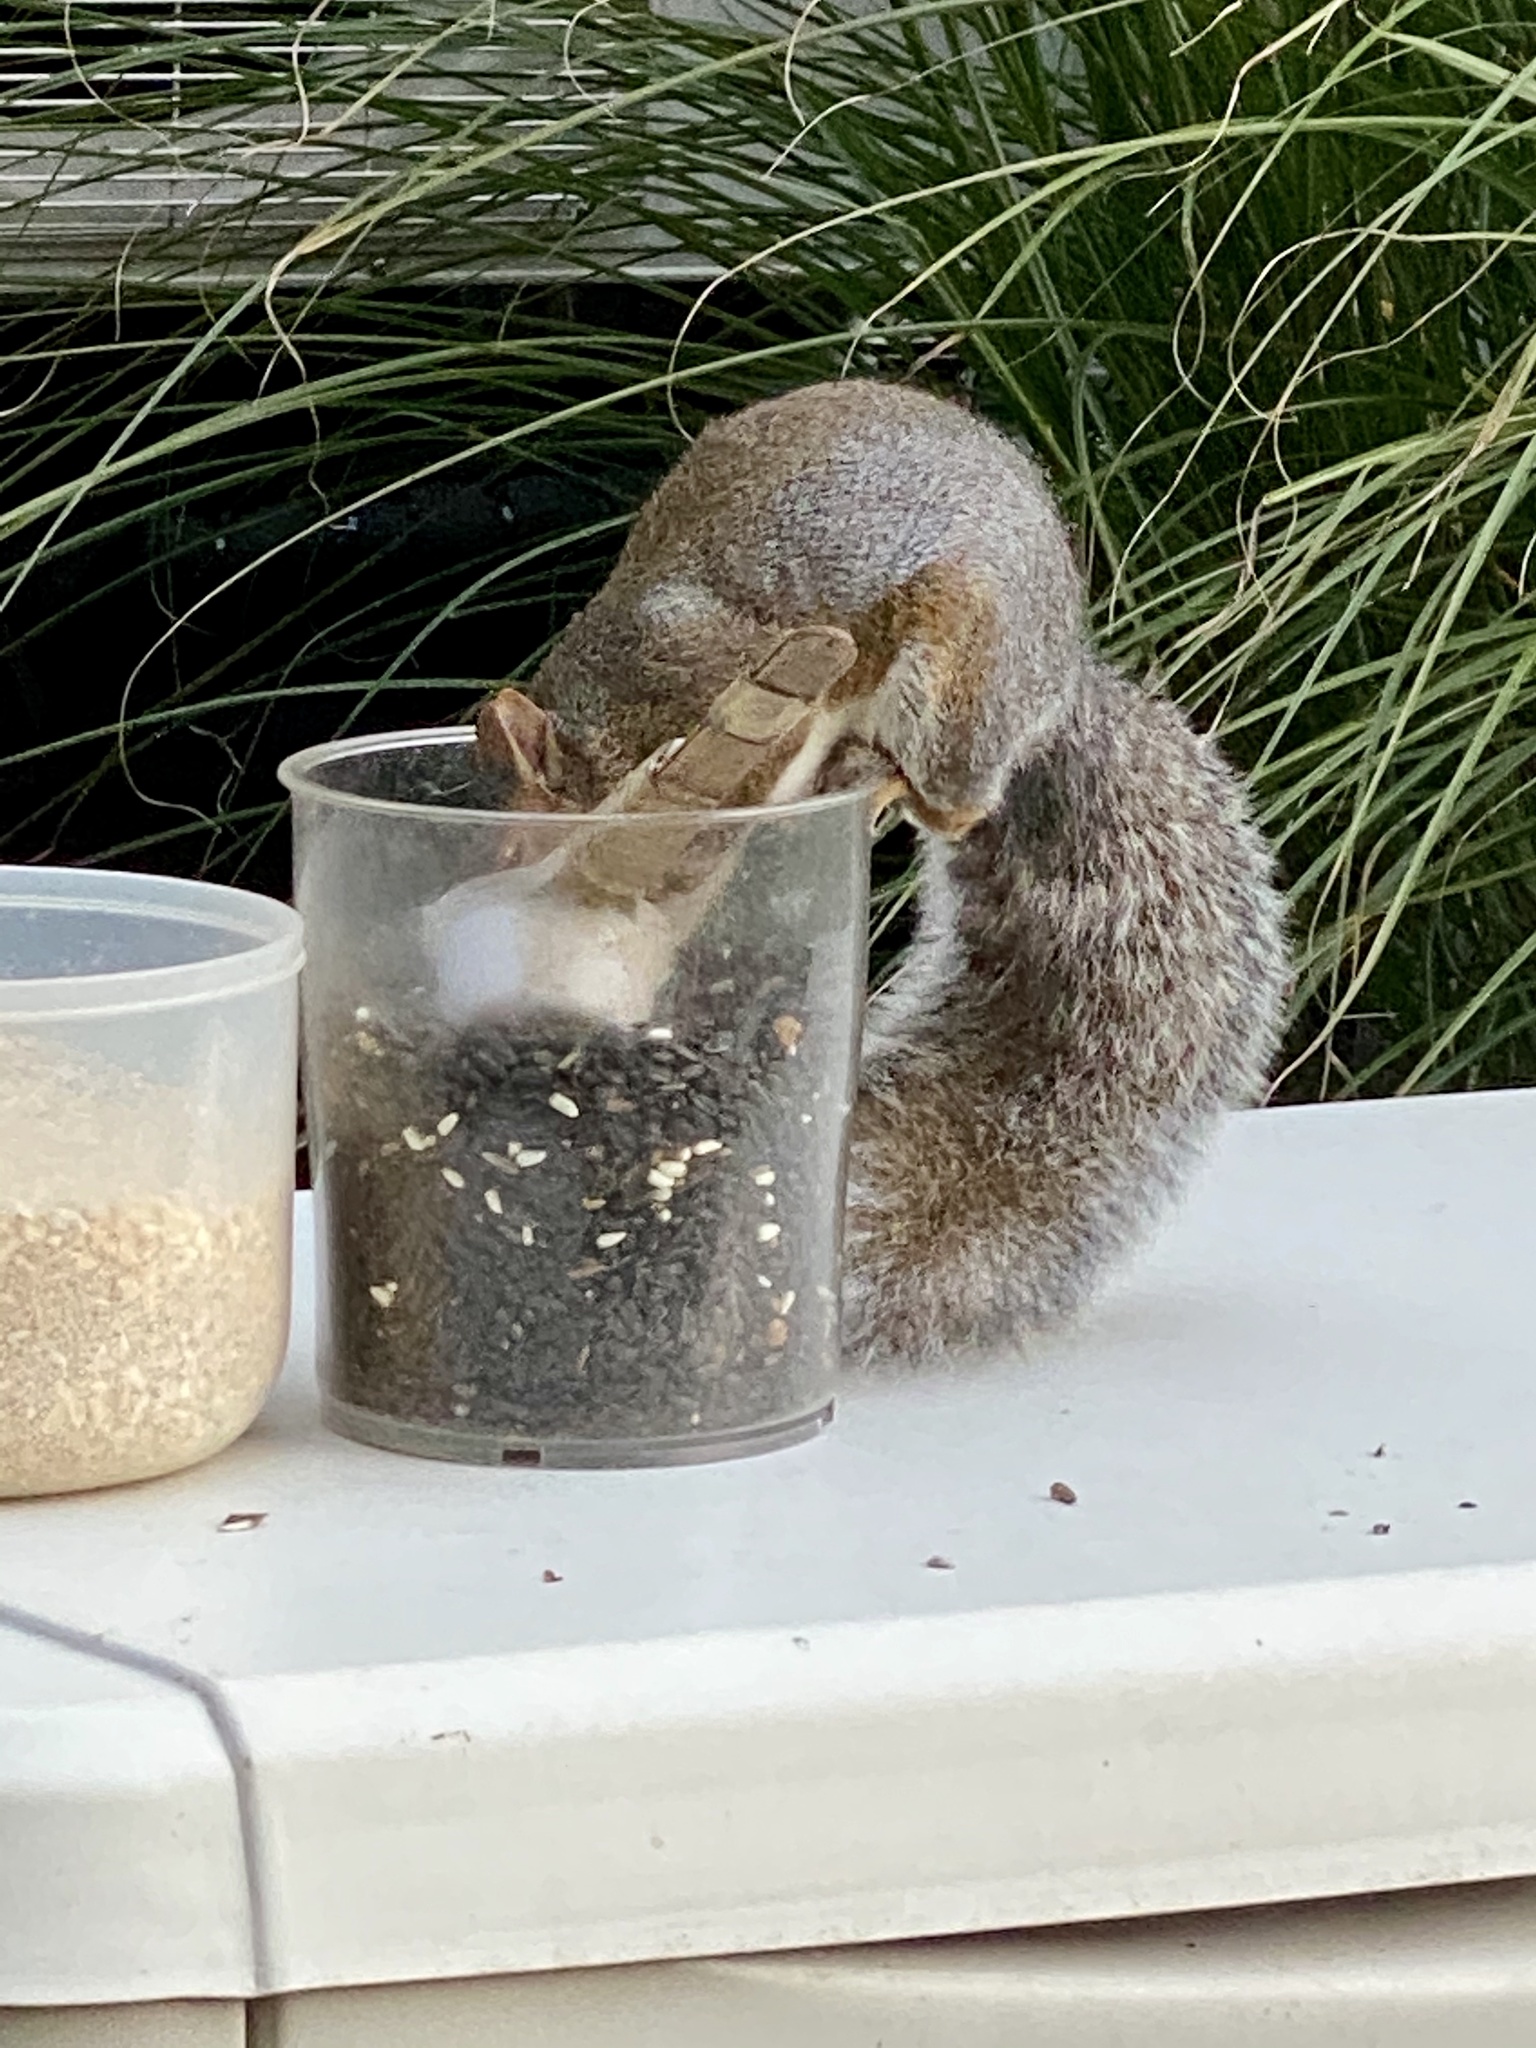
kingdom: Animalia
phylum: Chordata
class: Mammalia
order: Rodentia
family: Sciuridae
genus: Sciurus
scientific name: Sciurus carolinensis
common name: Eastern gray squirrel
